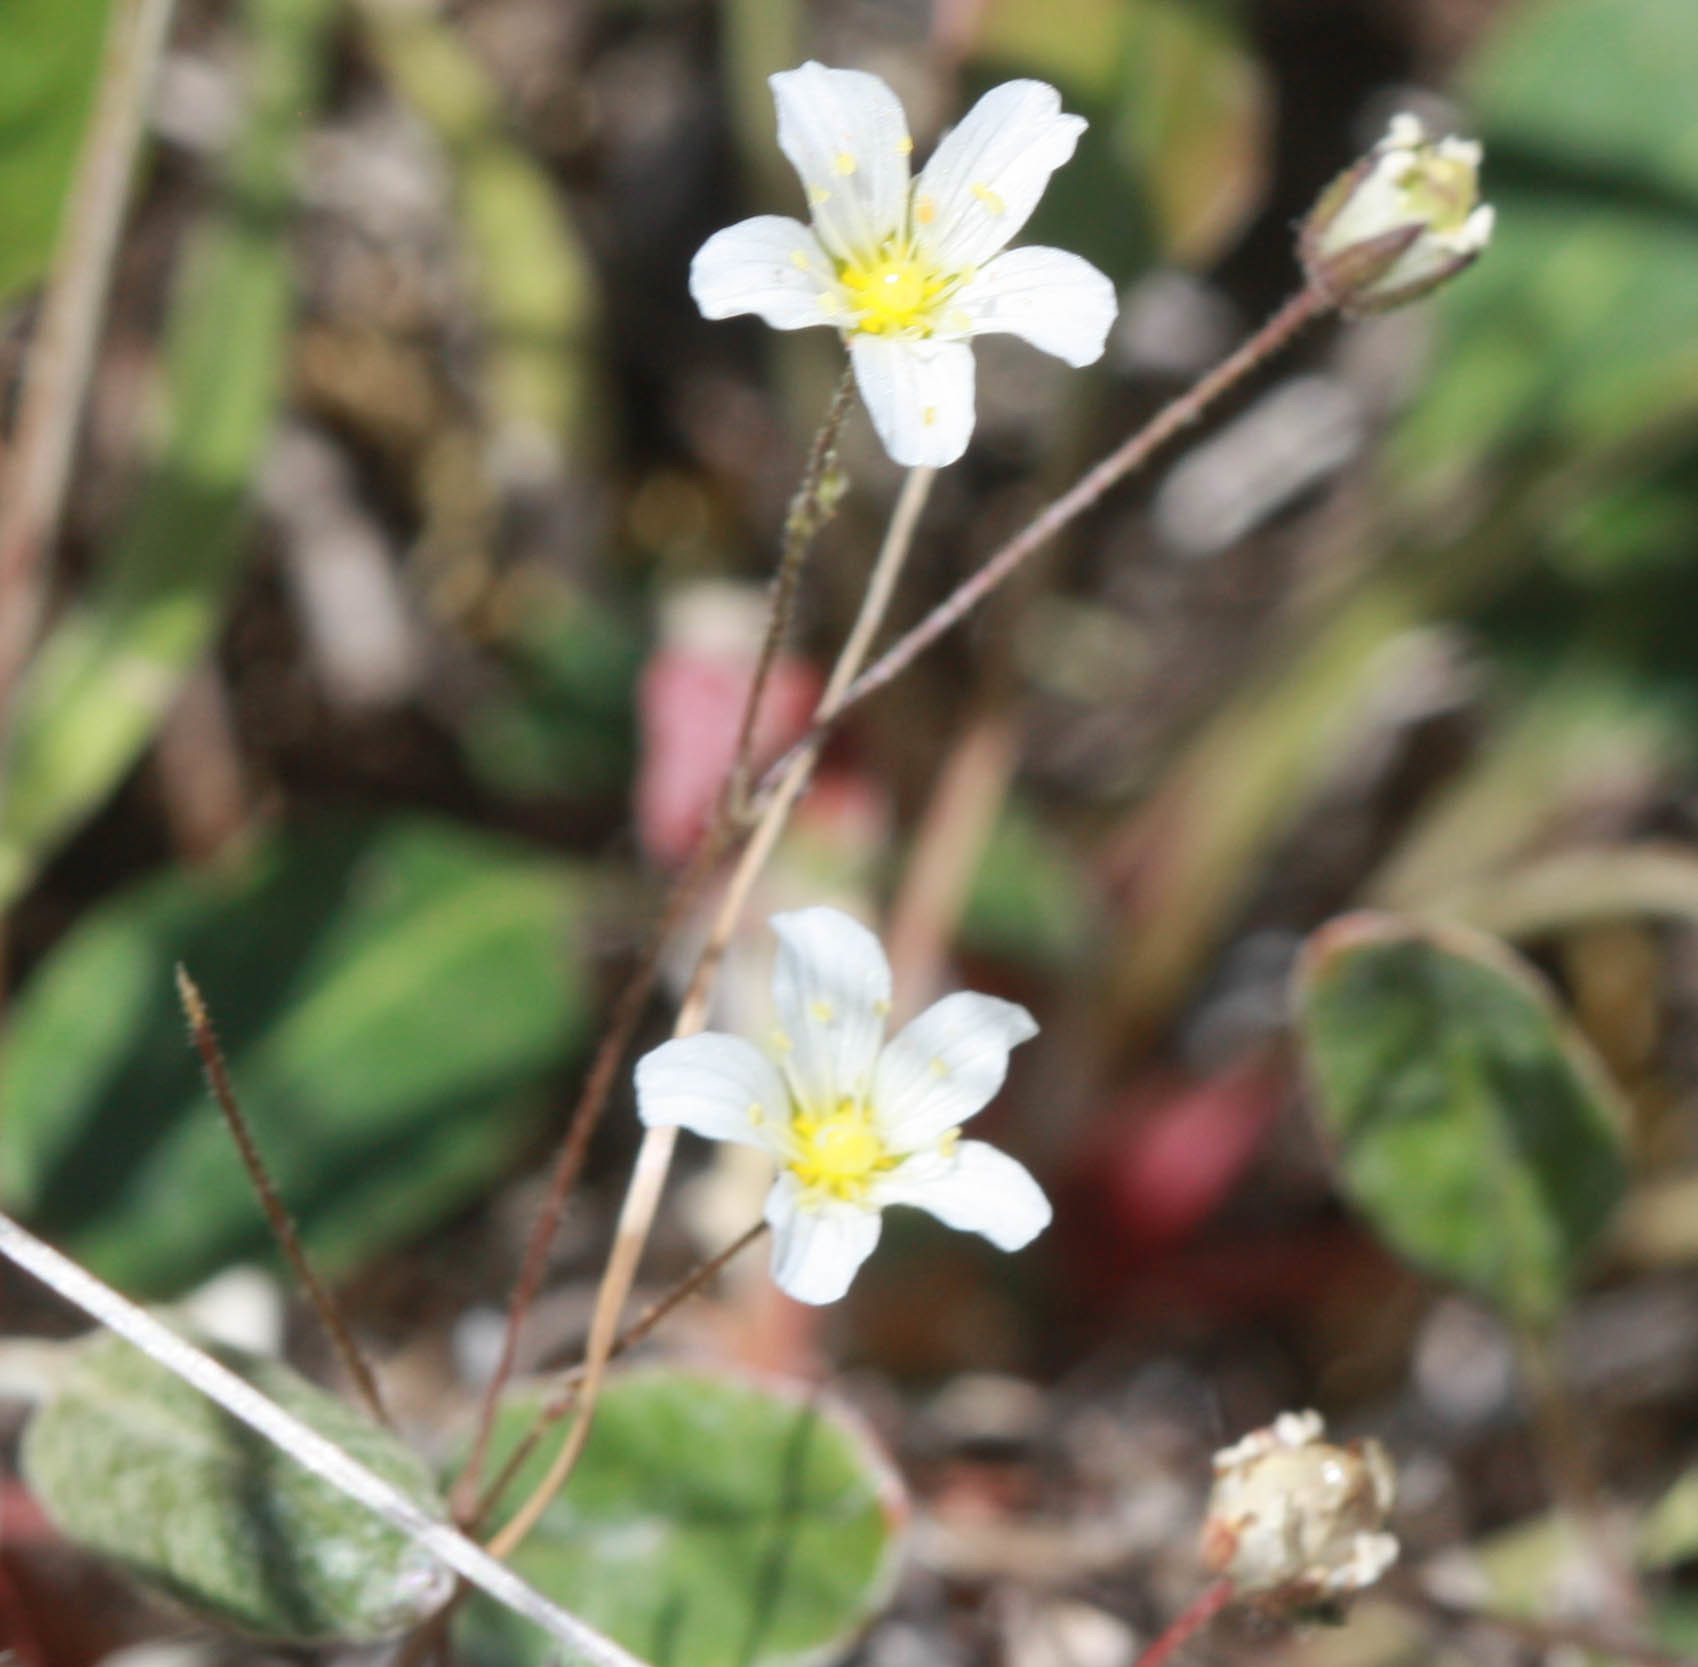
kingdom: Plantae
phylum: Tracheophyta
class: Magnoliopsida
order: Caryophyllales
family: Caryophyllaceae
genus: Sabulina
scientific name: Sabulina douglasii
